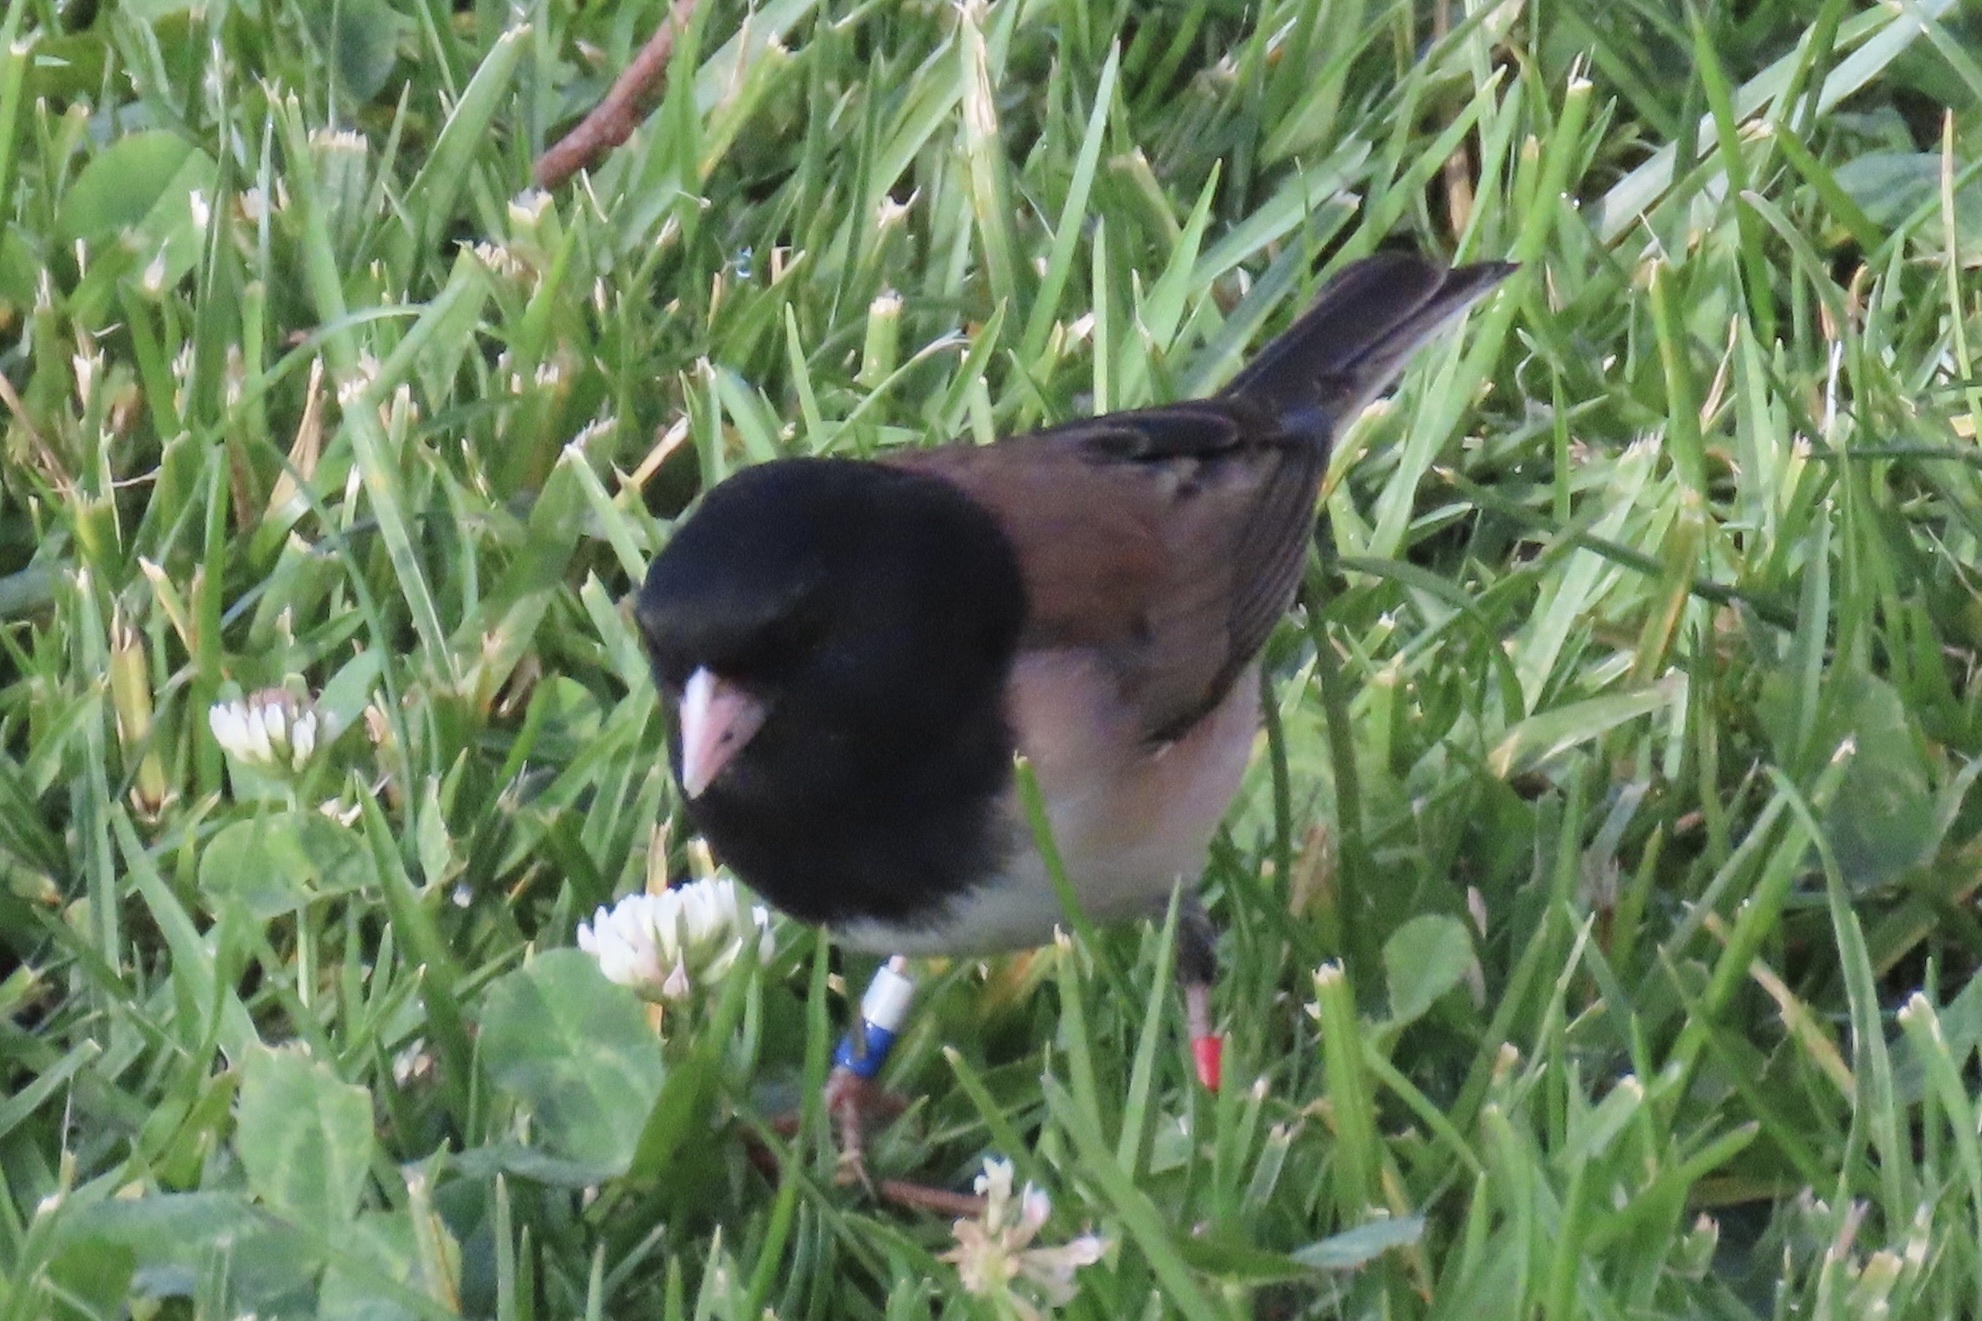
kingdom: Animalia
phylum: Chordata
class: Aves
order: Passeriformes
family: Passerellidae
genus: Junco
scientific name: Junco hyemalis
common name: Dark-eyed junco
